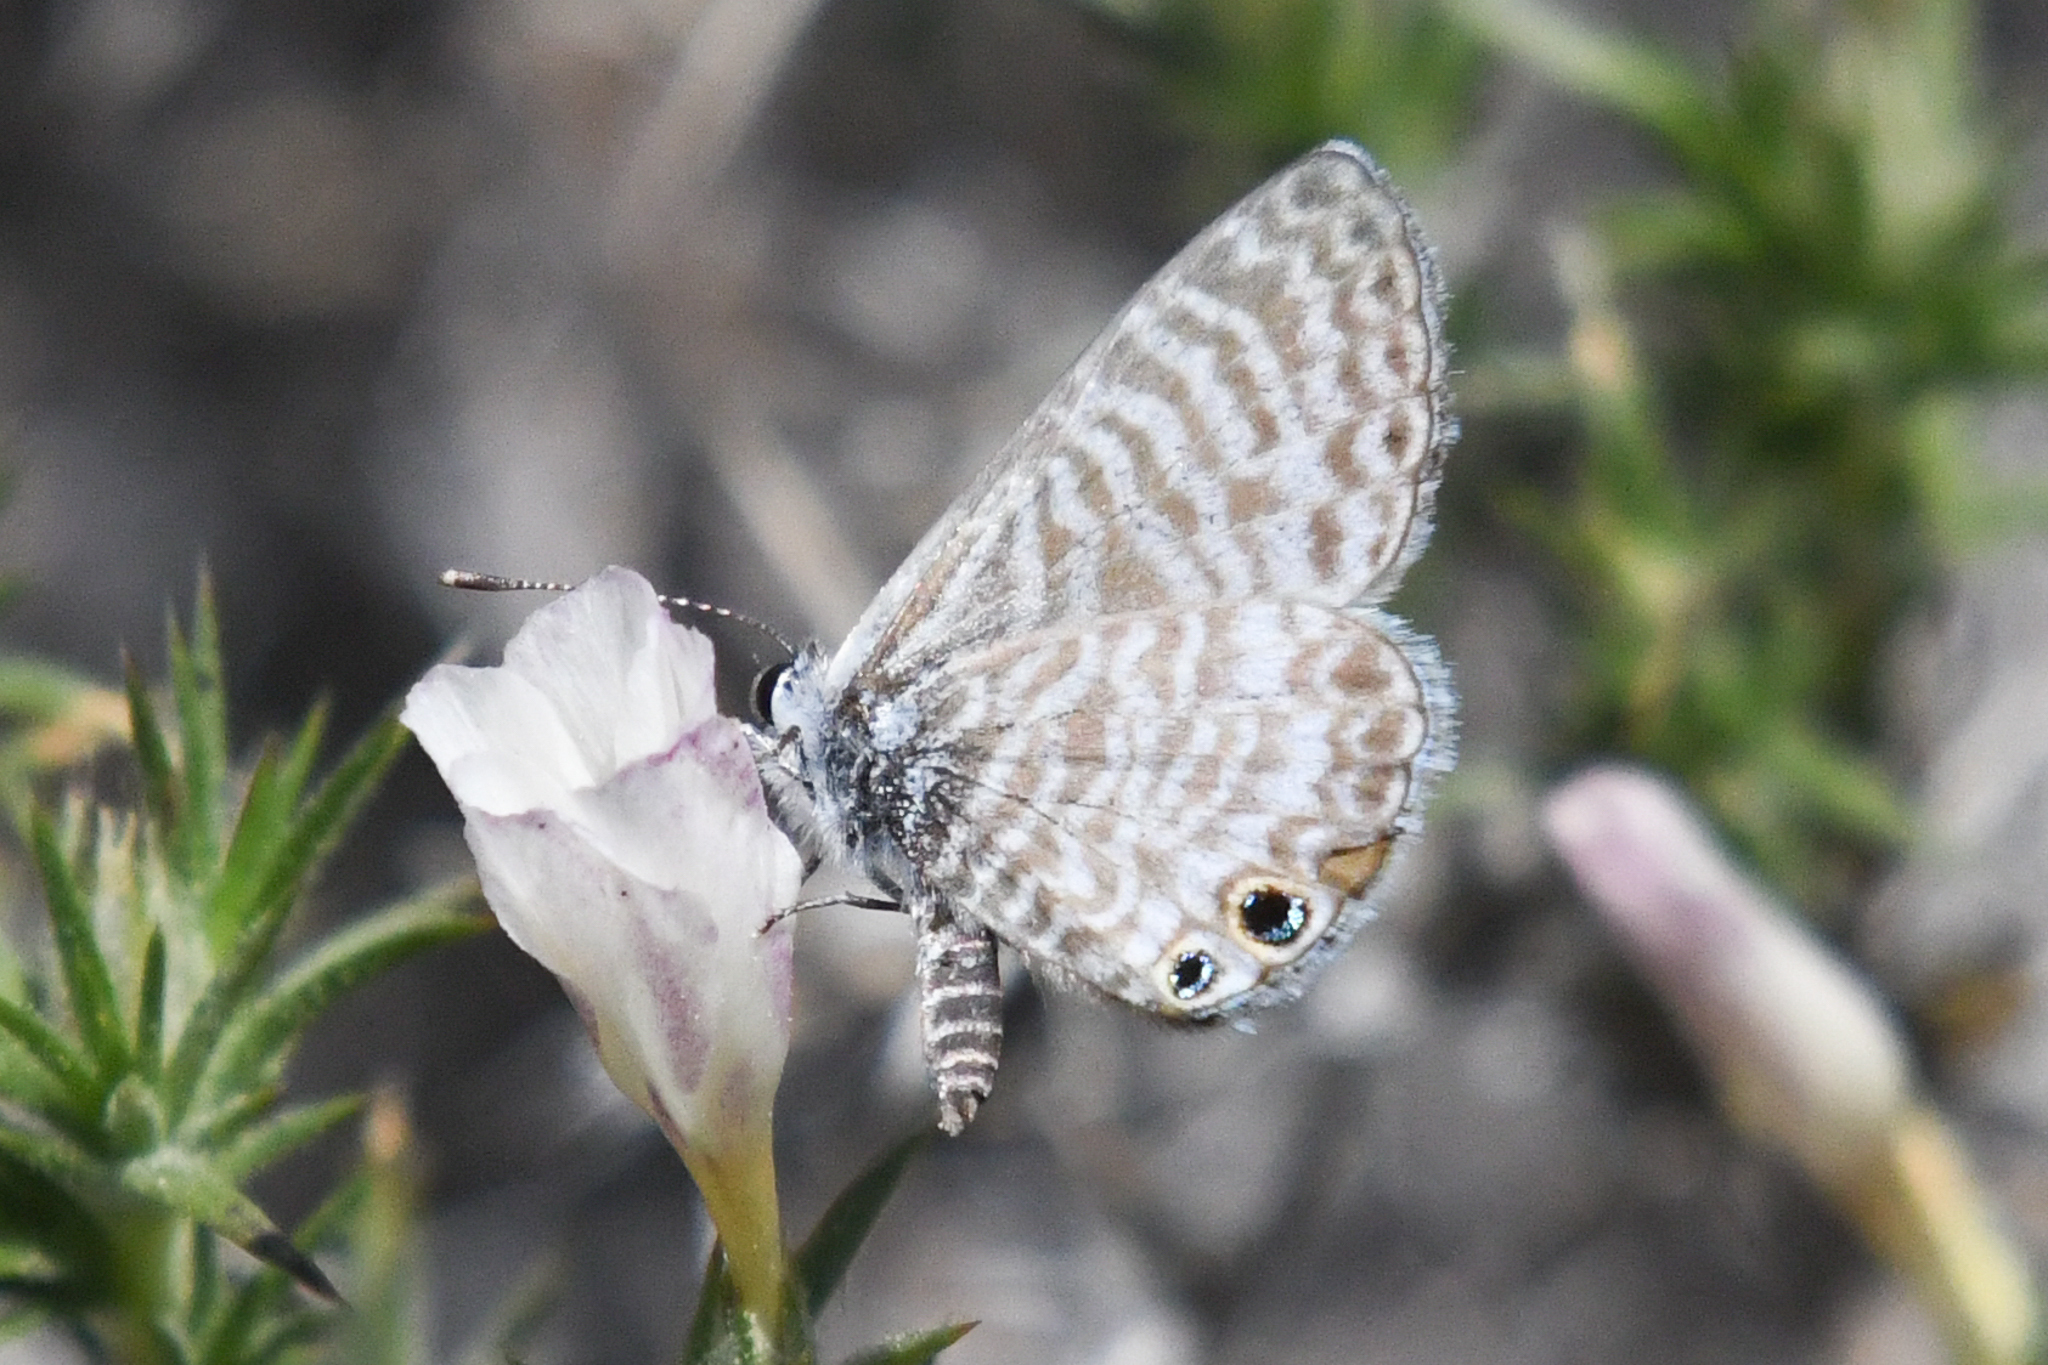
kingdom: Animalia
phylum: Arthropoda
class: Insecta
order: Lepidoptera
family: Lycaenidae
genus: Leptotes
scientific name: Leptotes marina
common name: Marine blue
